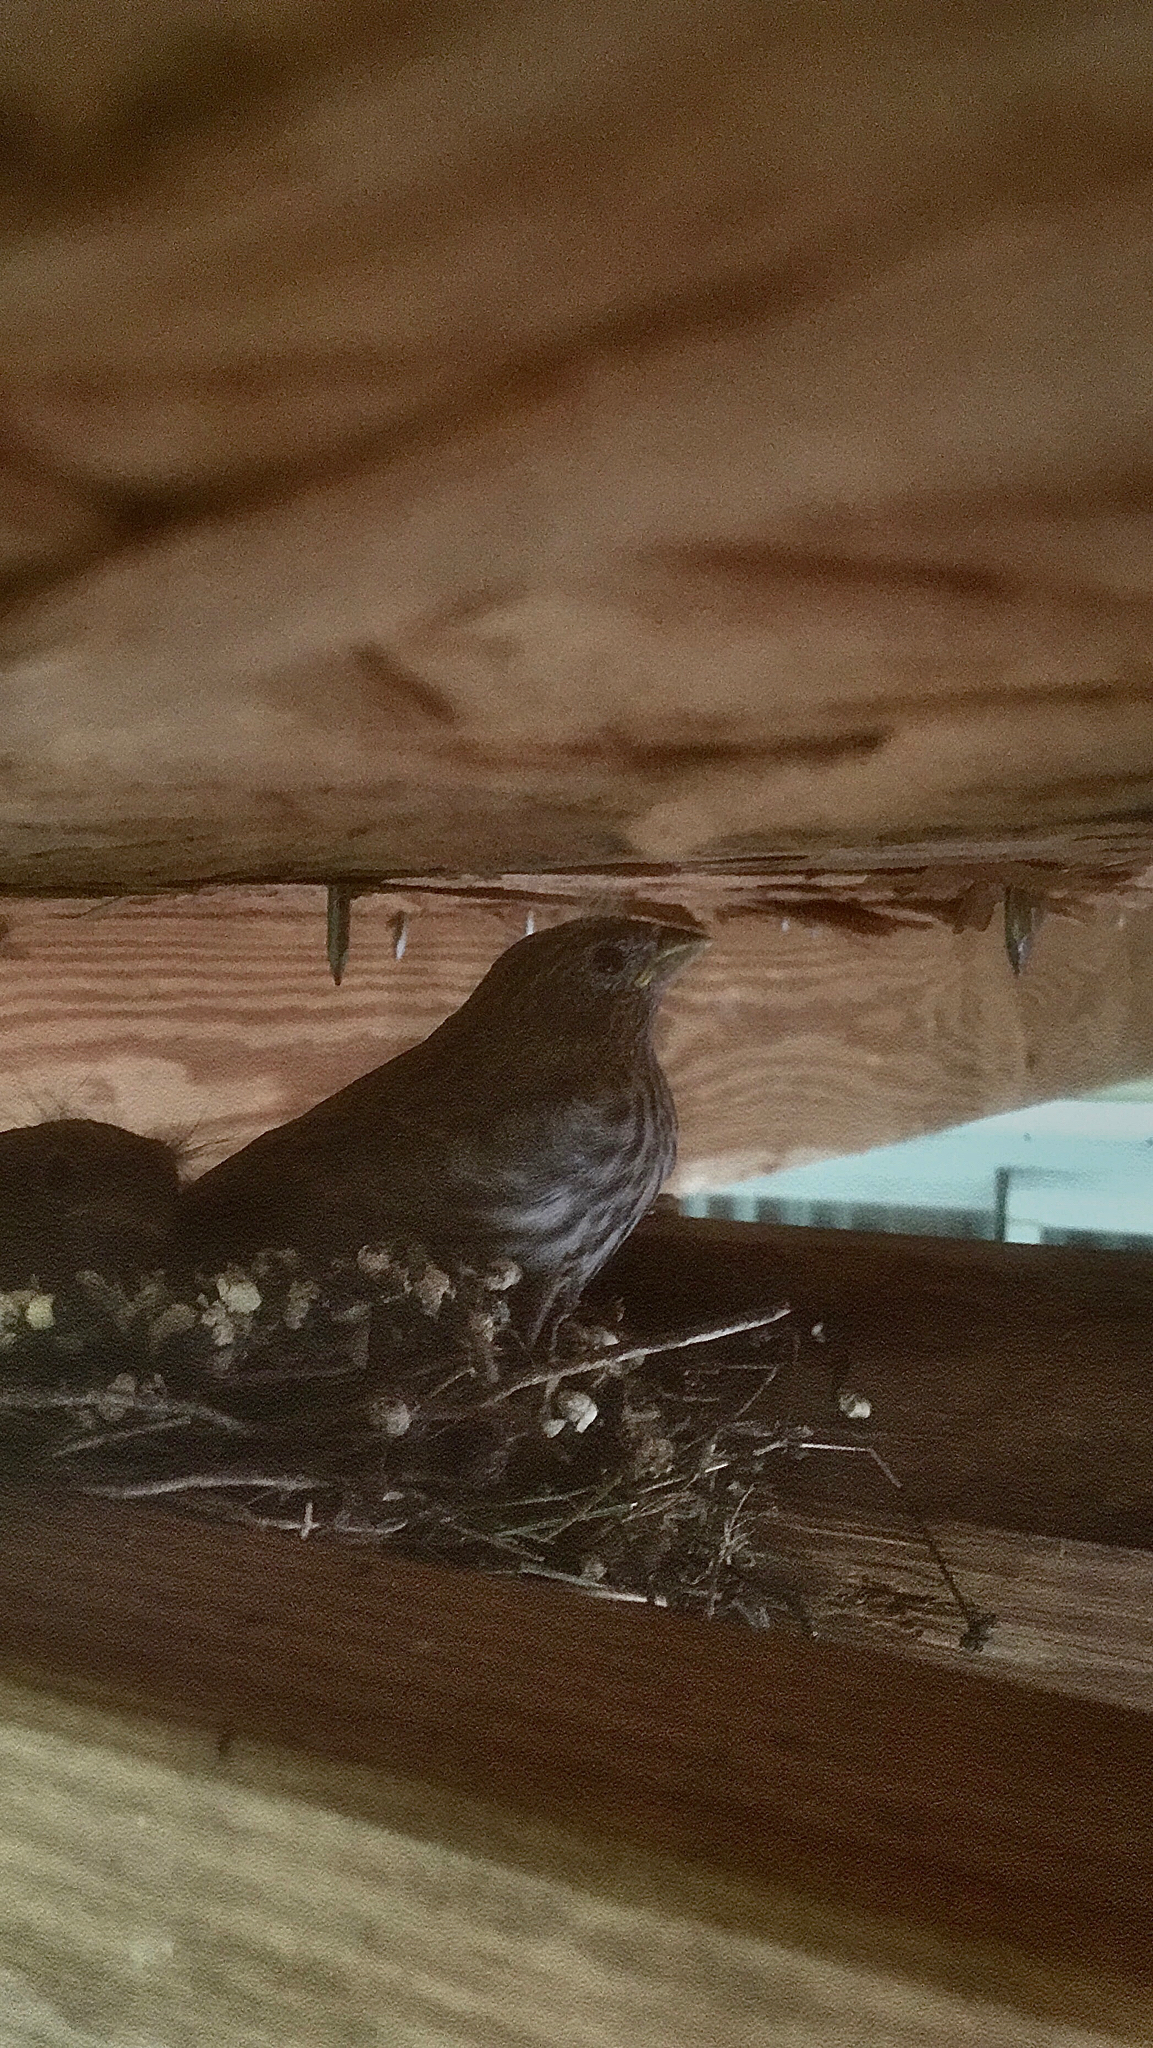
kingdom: Animalia
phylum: Chordata
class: Aves
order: Passeriformes
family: Fringillidae
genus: Haemorhous
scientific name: Haemorhous mexicanus
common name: House finch
